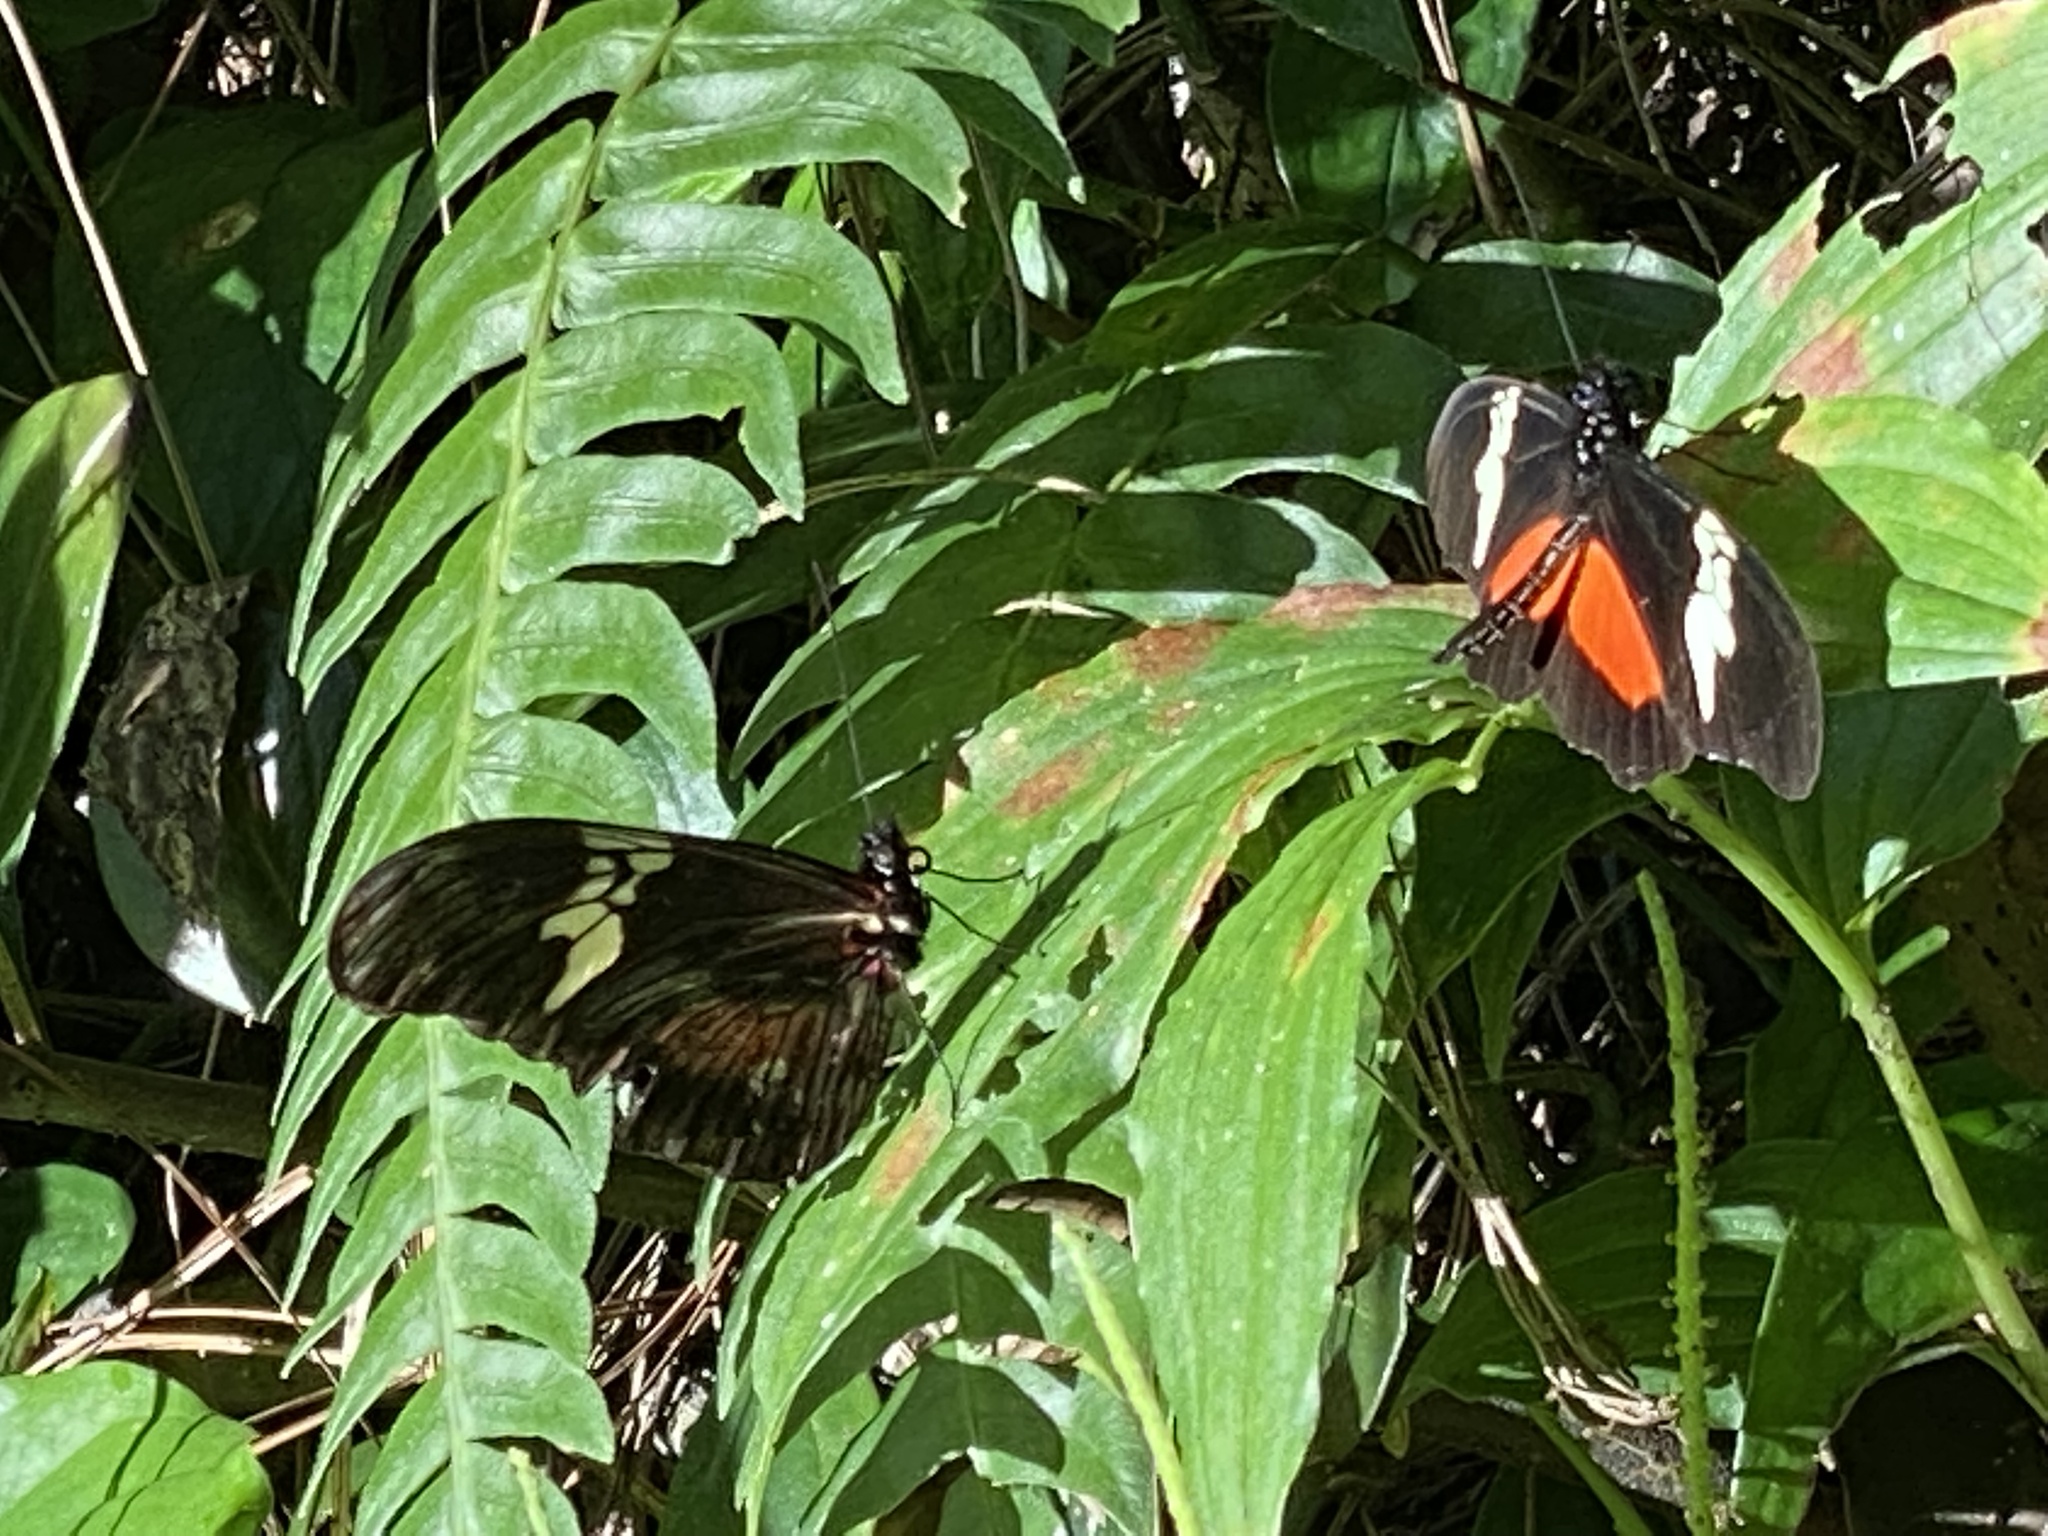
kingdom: Animalia
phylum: Arthropoda
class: Insecta
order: Lepidoptera
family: Nymphalidae
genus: Heliconius
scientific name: Heliconius hortense
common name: Mexican longwing
